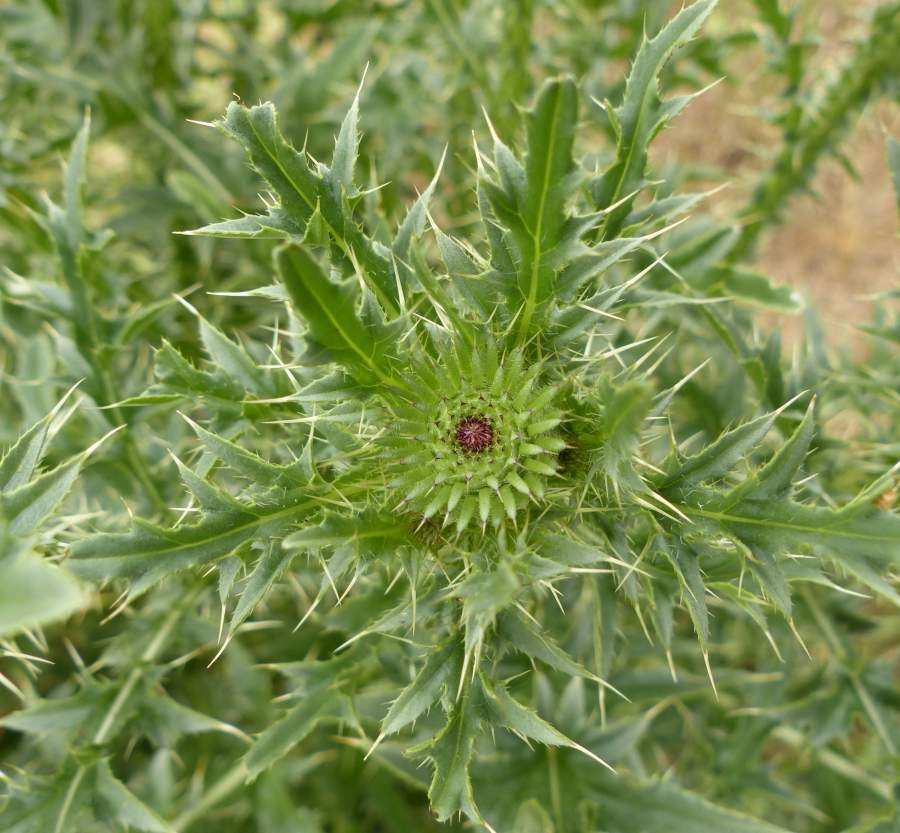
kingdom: Plantae
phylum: Tracheophyta
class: Magnoliopsida
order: Asterales
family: Asteraceae
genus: Carduus
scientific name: Carduus acanthoides
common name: Plumeless thistle
